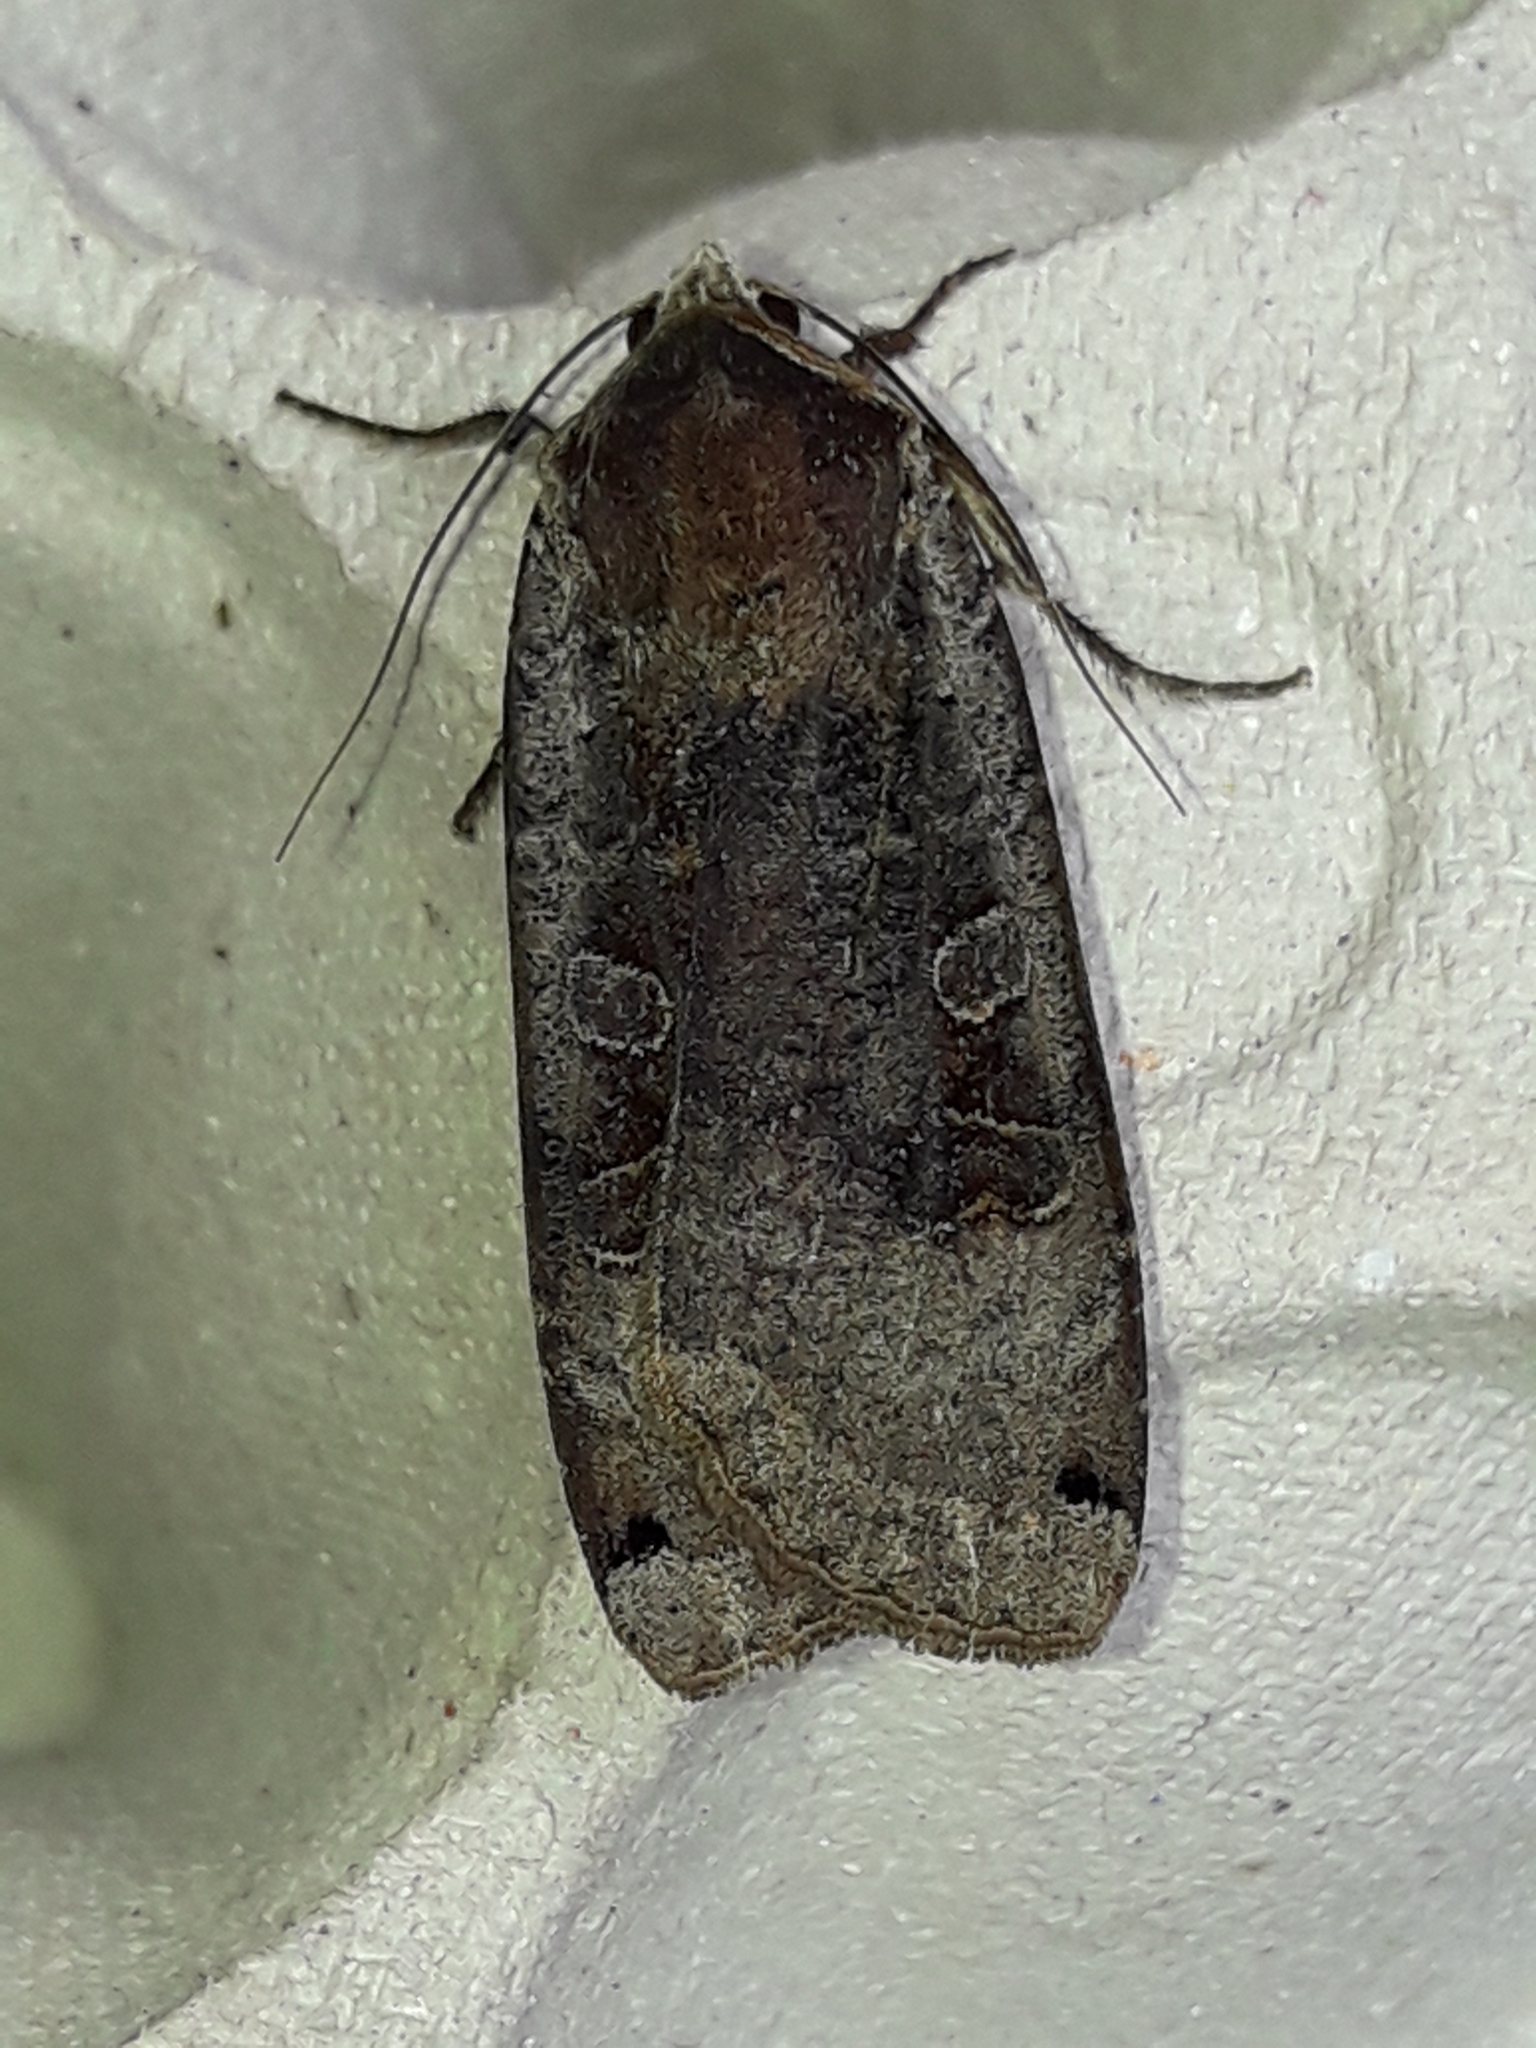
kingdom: Animalia
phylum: Arthropoda
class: Insecta
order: Lepidoptera
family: Noctuidae
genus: Noctua
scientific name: Noctua pronuba
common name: Large yellow underwing
